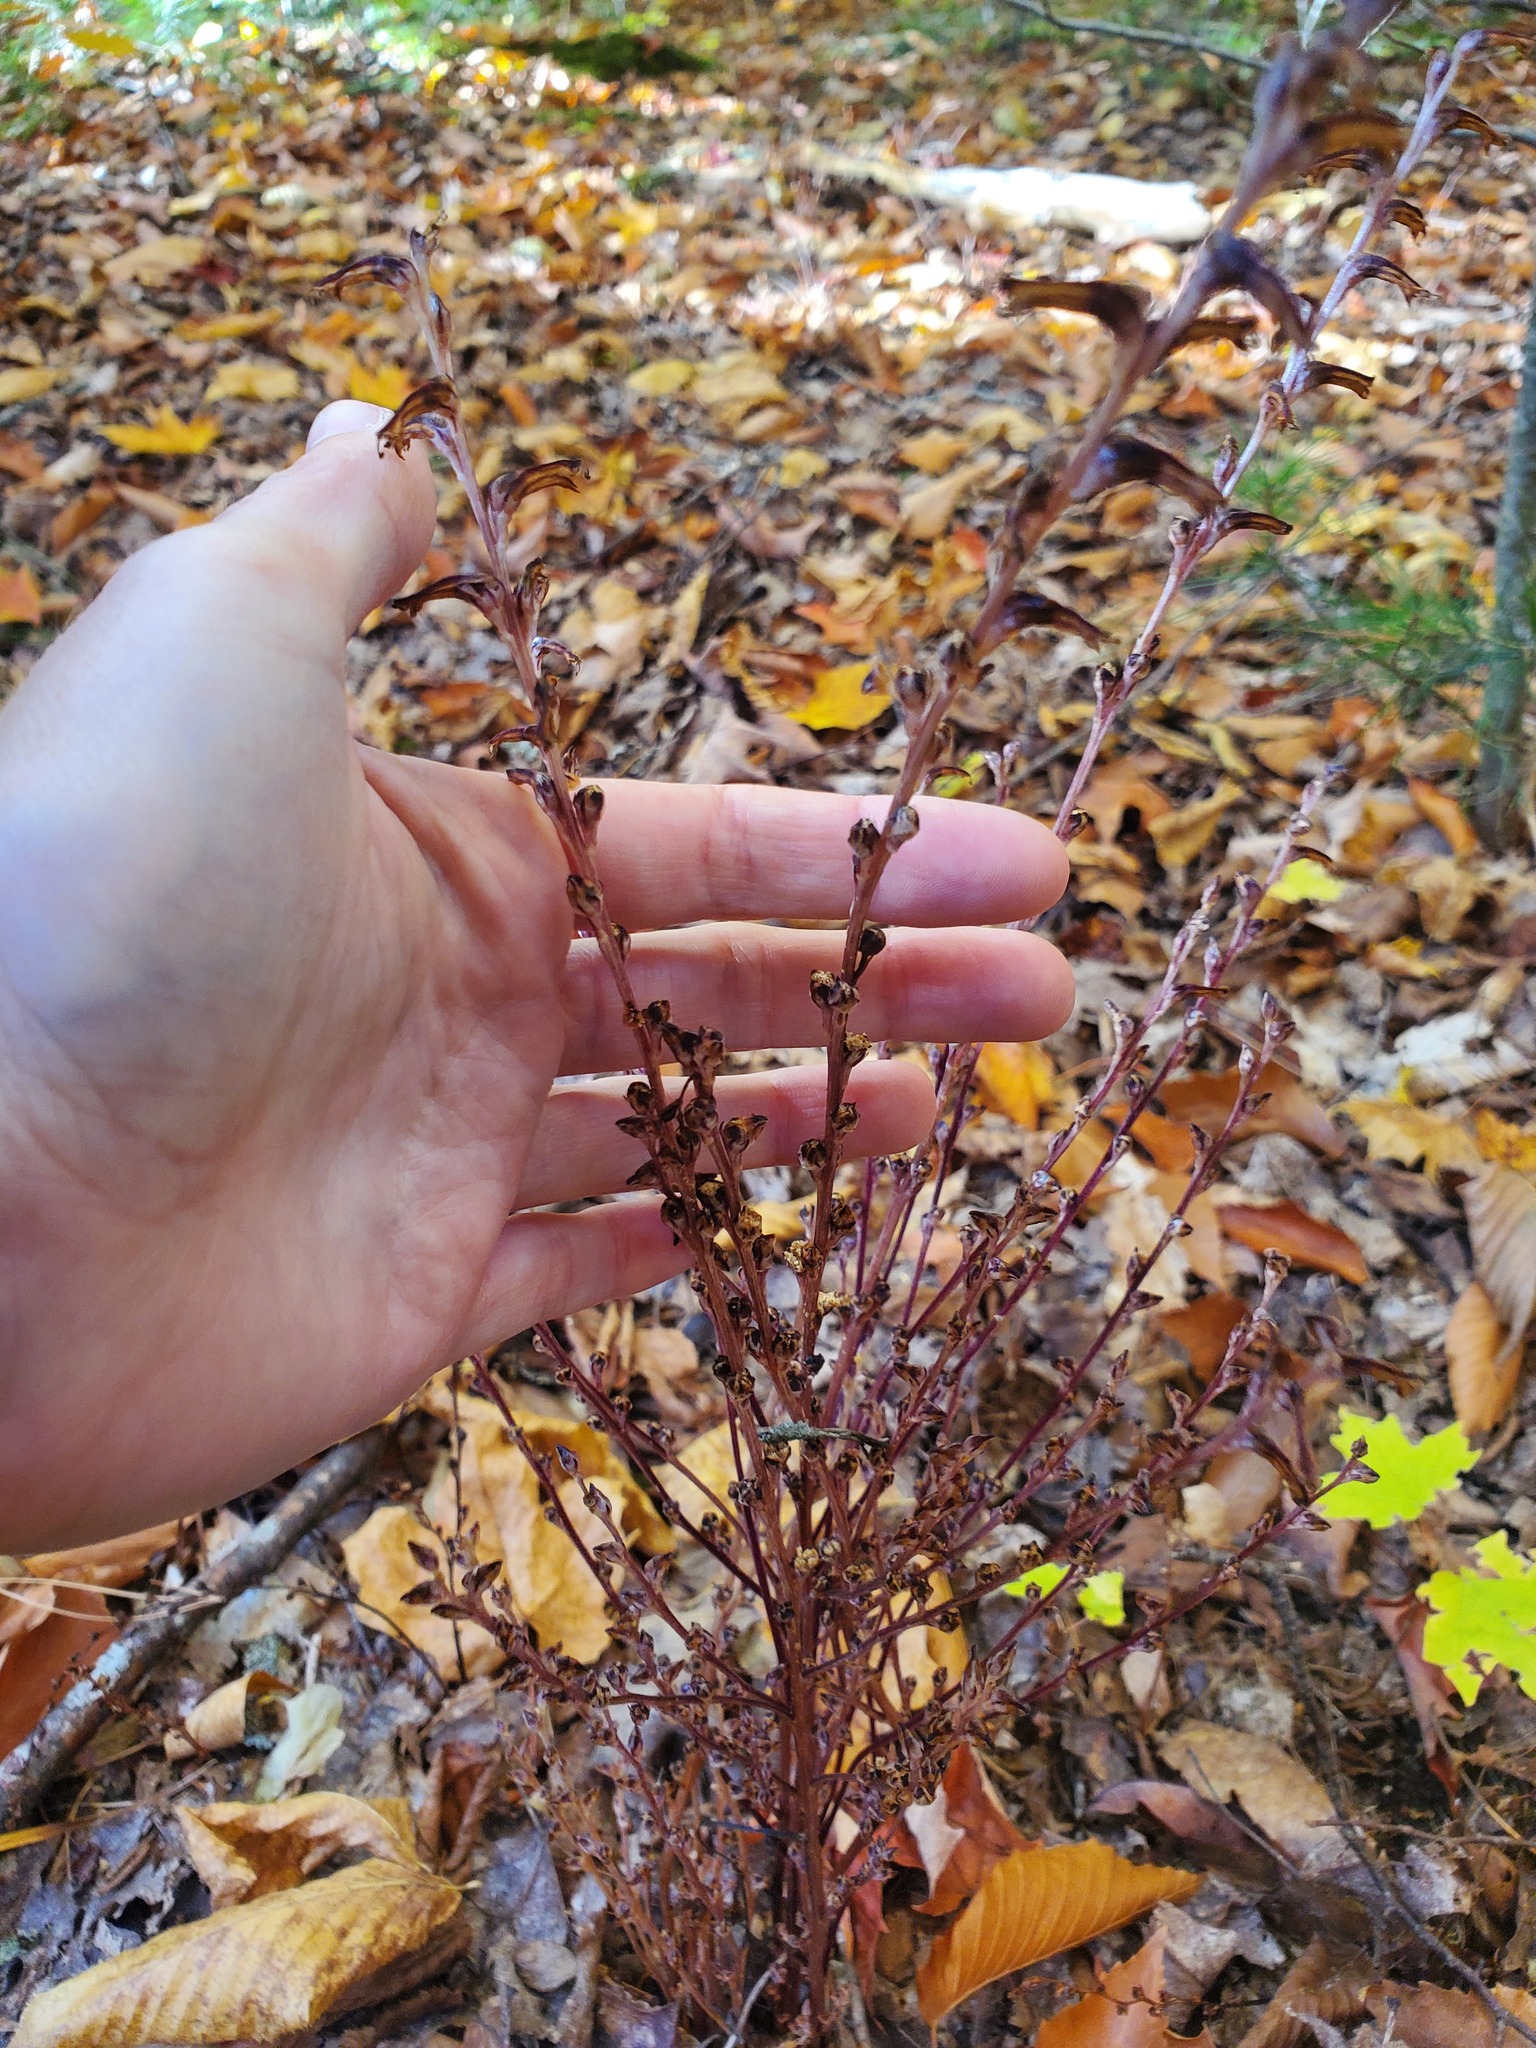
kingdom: Plantae
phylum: Tracheophyta
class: Magnoliopsida
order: Lamiales
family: Orobanchaceae
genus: Epifagus
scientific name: Epifagus virginiana
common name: Beechdrops
